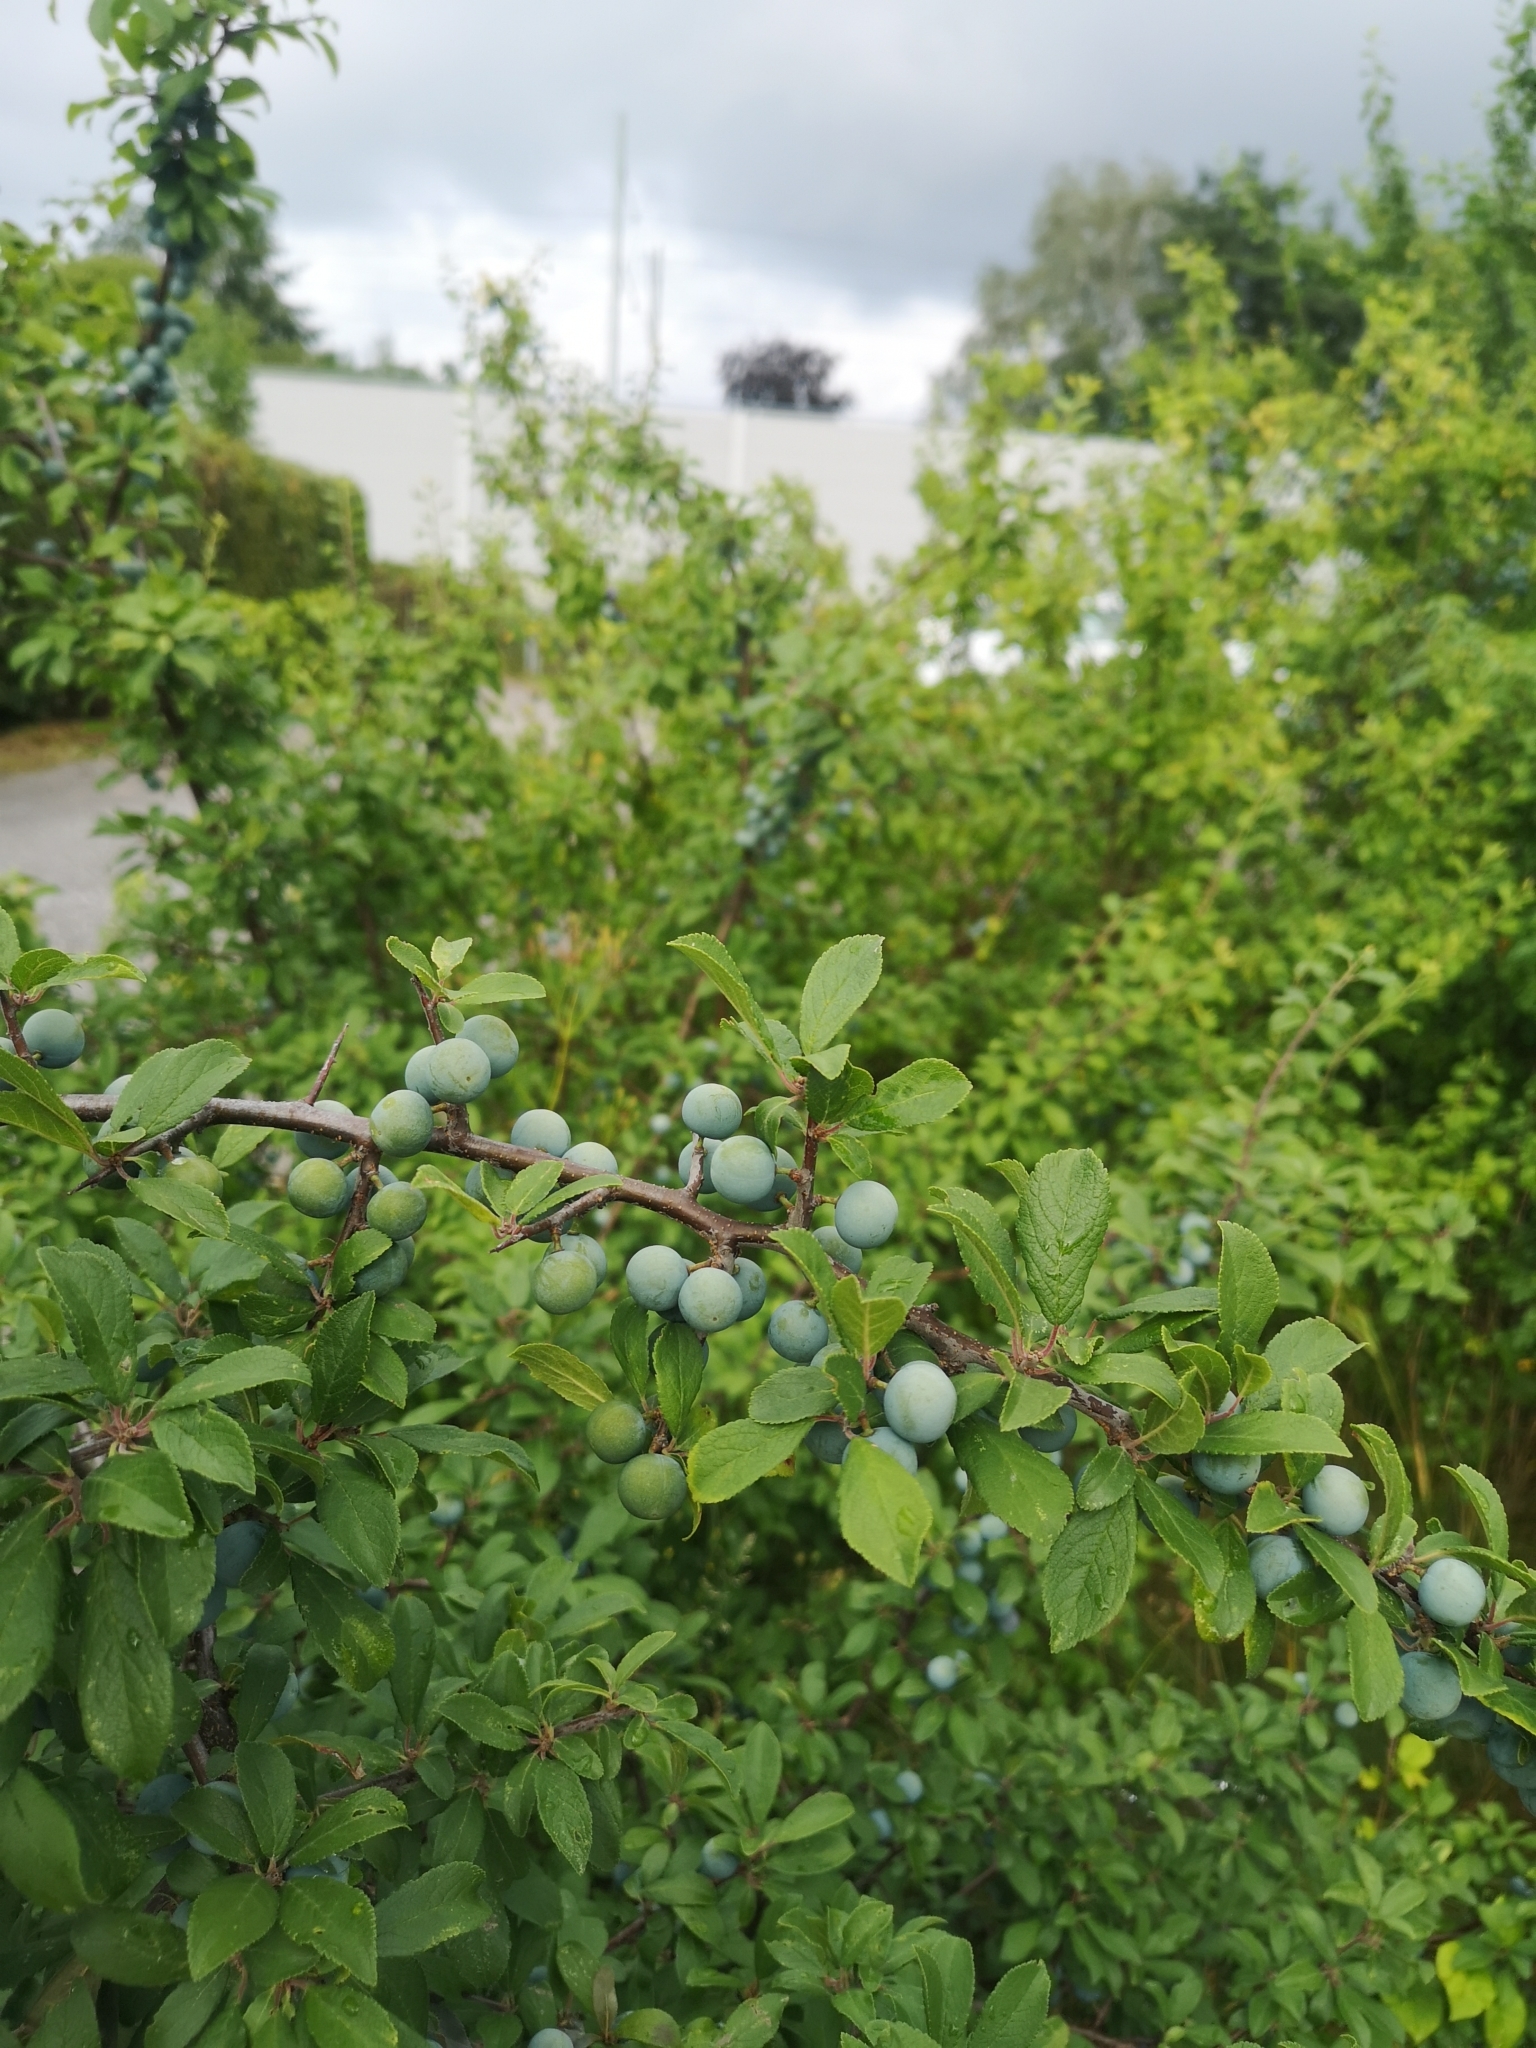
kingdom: Plantae
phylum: Tracheophyta
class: Magnoliopsida
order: Rosales
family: Rosaceae
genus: Prunus
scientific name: Prunus spinosa
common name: Blackthorn
